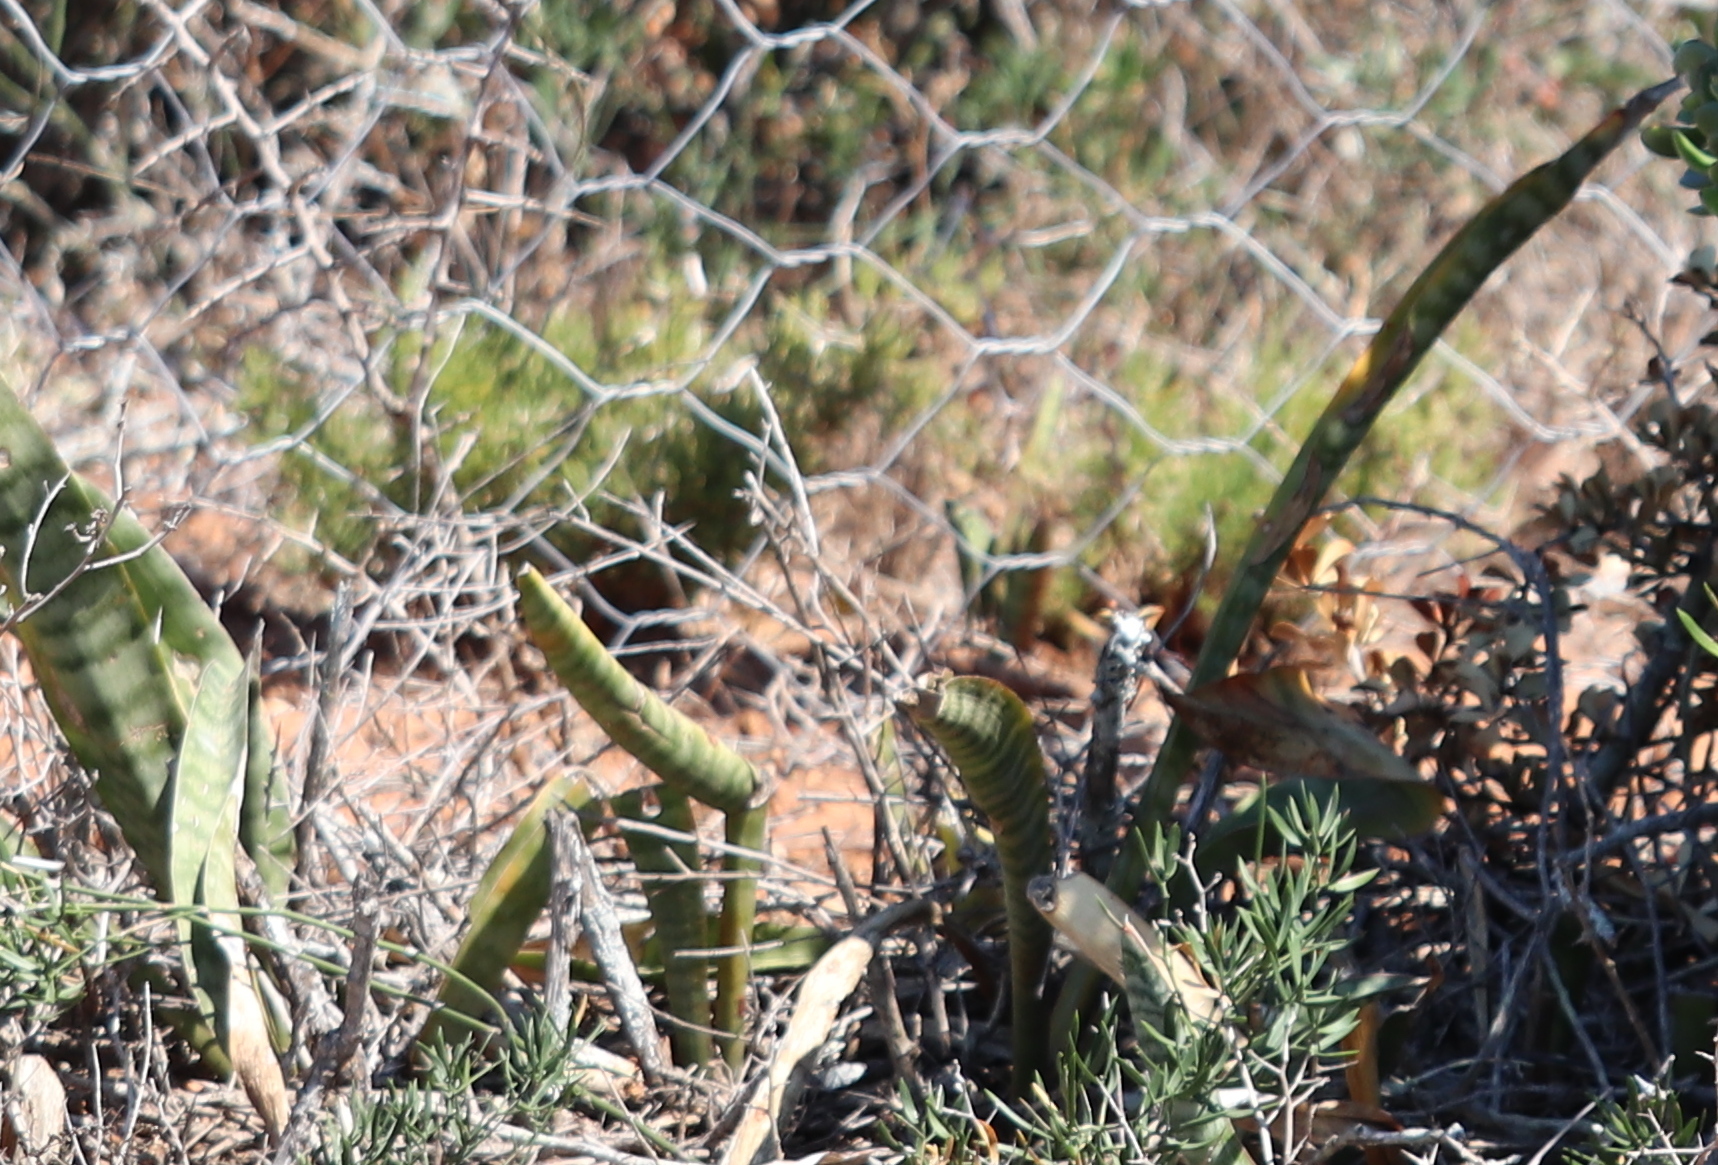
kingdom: Plantae
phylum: Tracheophyta
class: Liliopsida
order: Asparagales
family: Asparagaceae
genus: Dracaena
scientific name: Dracaena hyacinthoides
